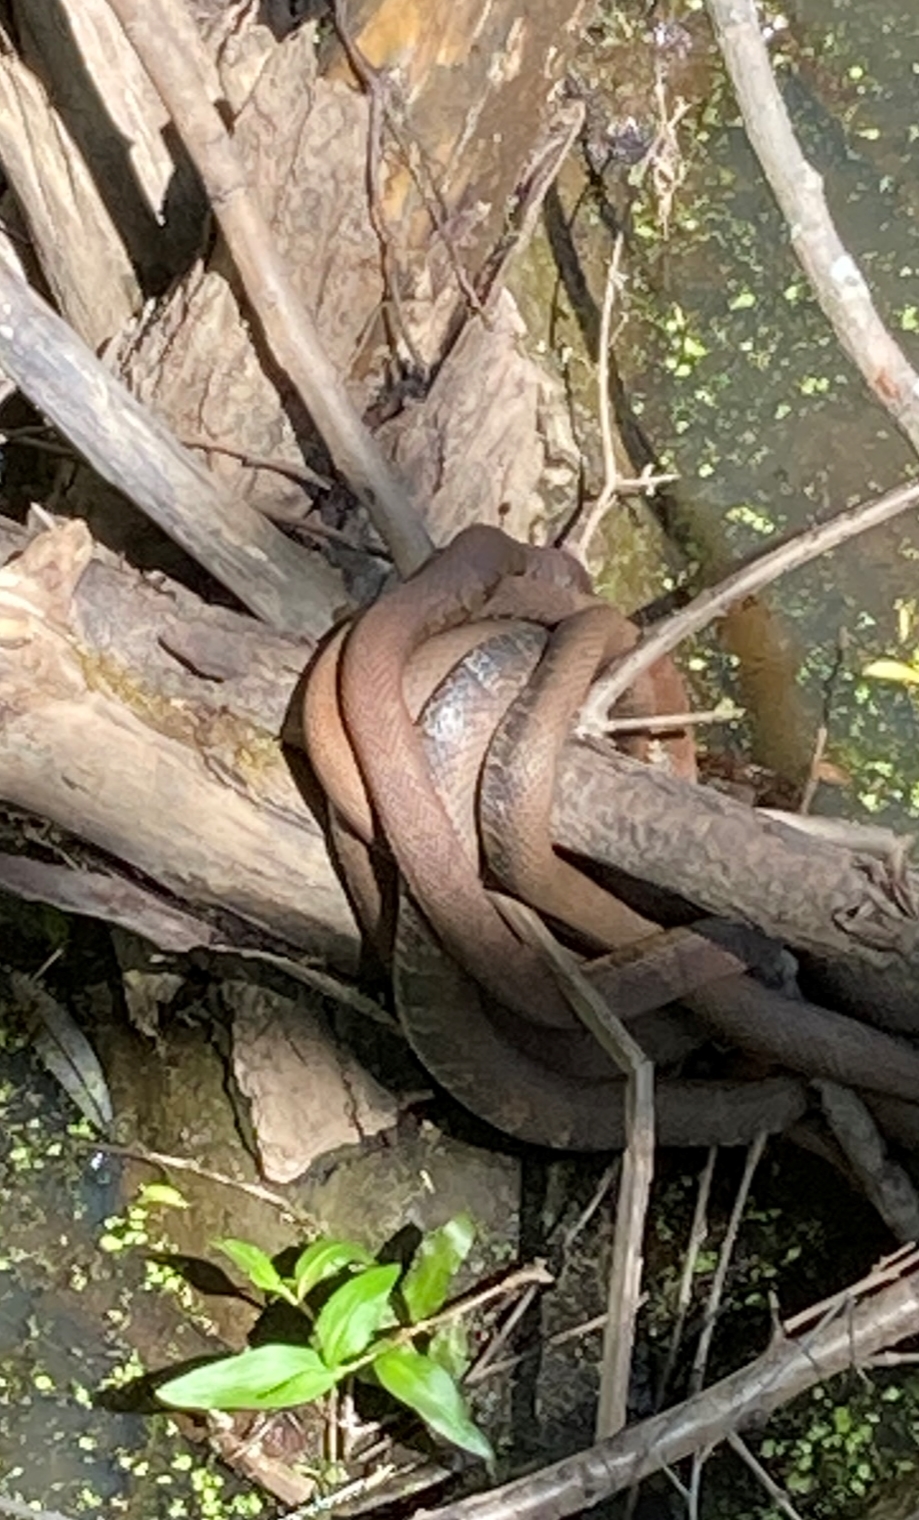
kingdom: Animalia
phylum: Chordata
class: Squamata
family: Colubridae
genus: Nerodia
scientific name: Nerodia sipedon
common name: Northern water snake
